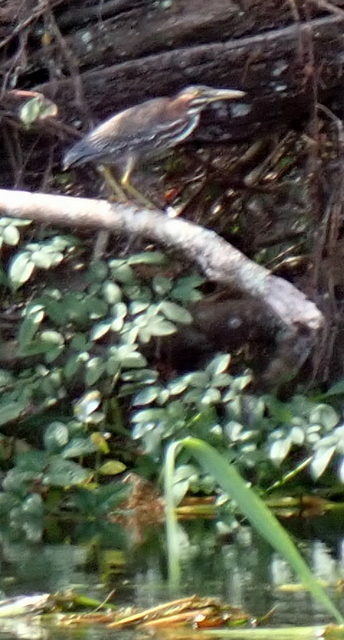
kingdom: Animalia
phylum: Chordata
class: Aves
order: Pelecaniformes
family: Ardeidae
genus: Butorides
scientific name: Butorides virescens
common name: Green heron
